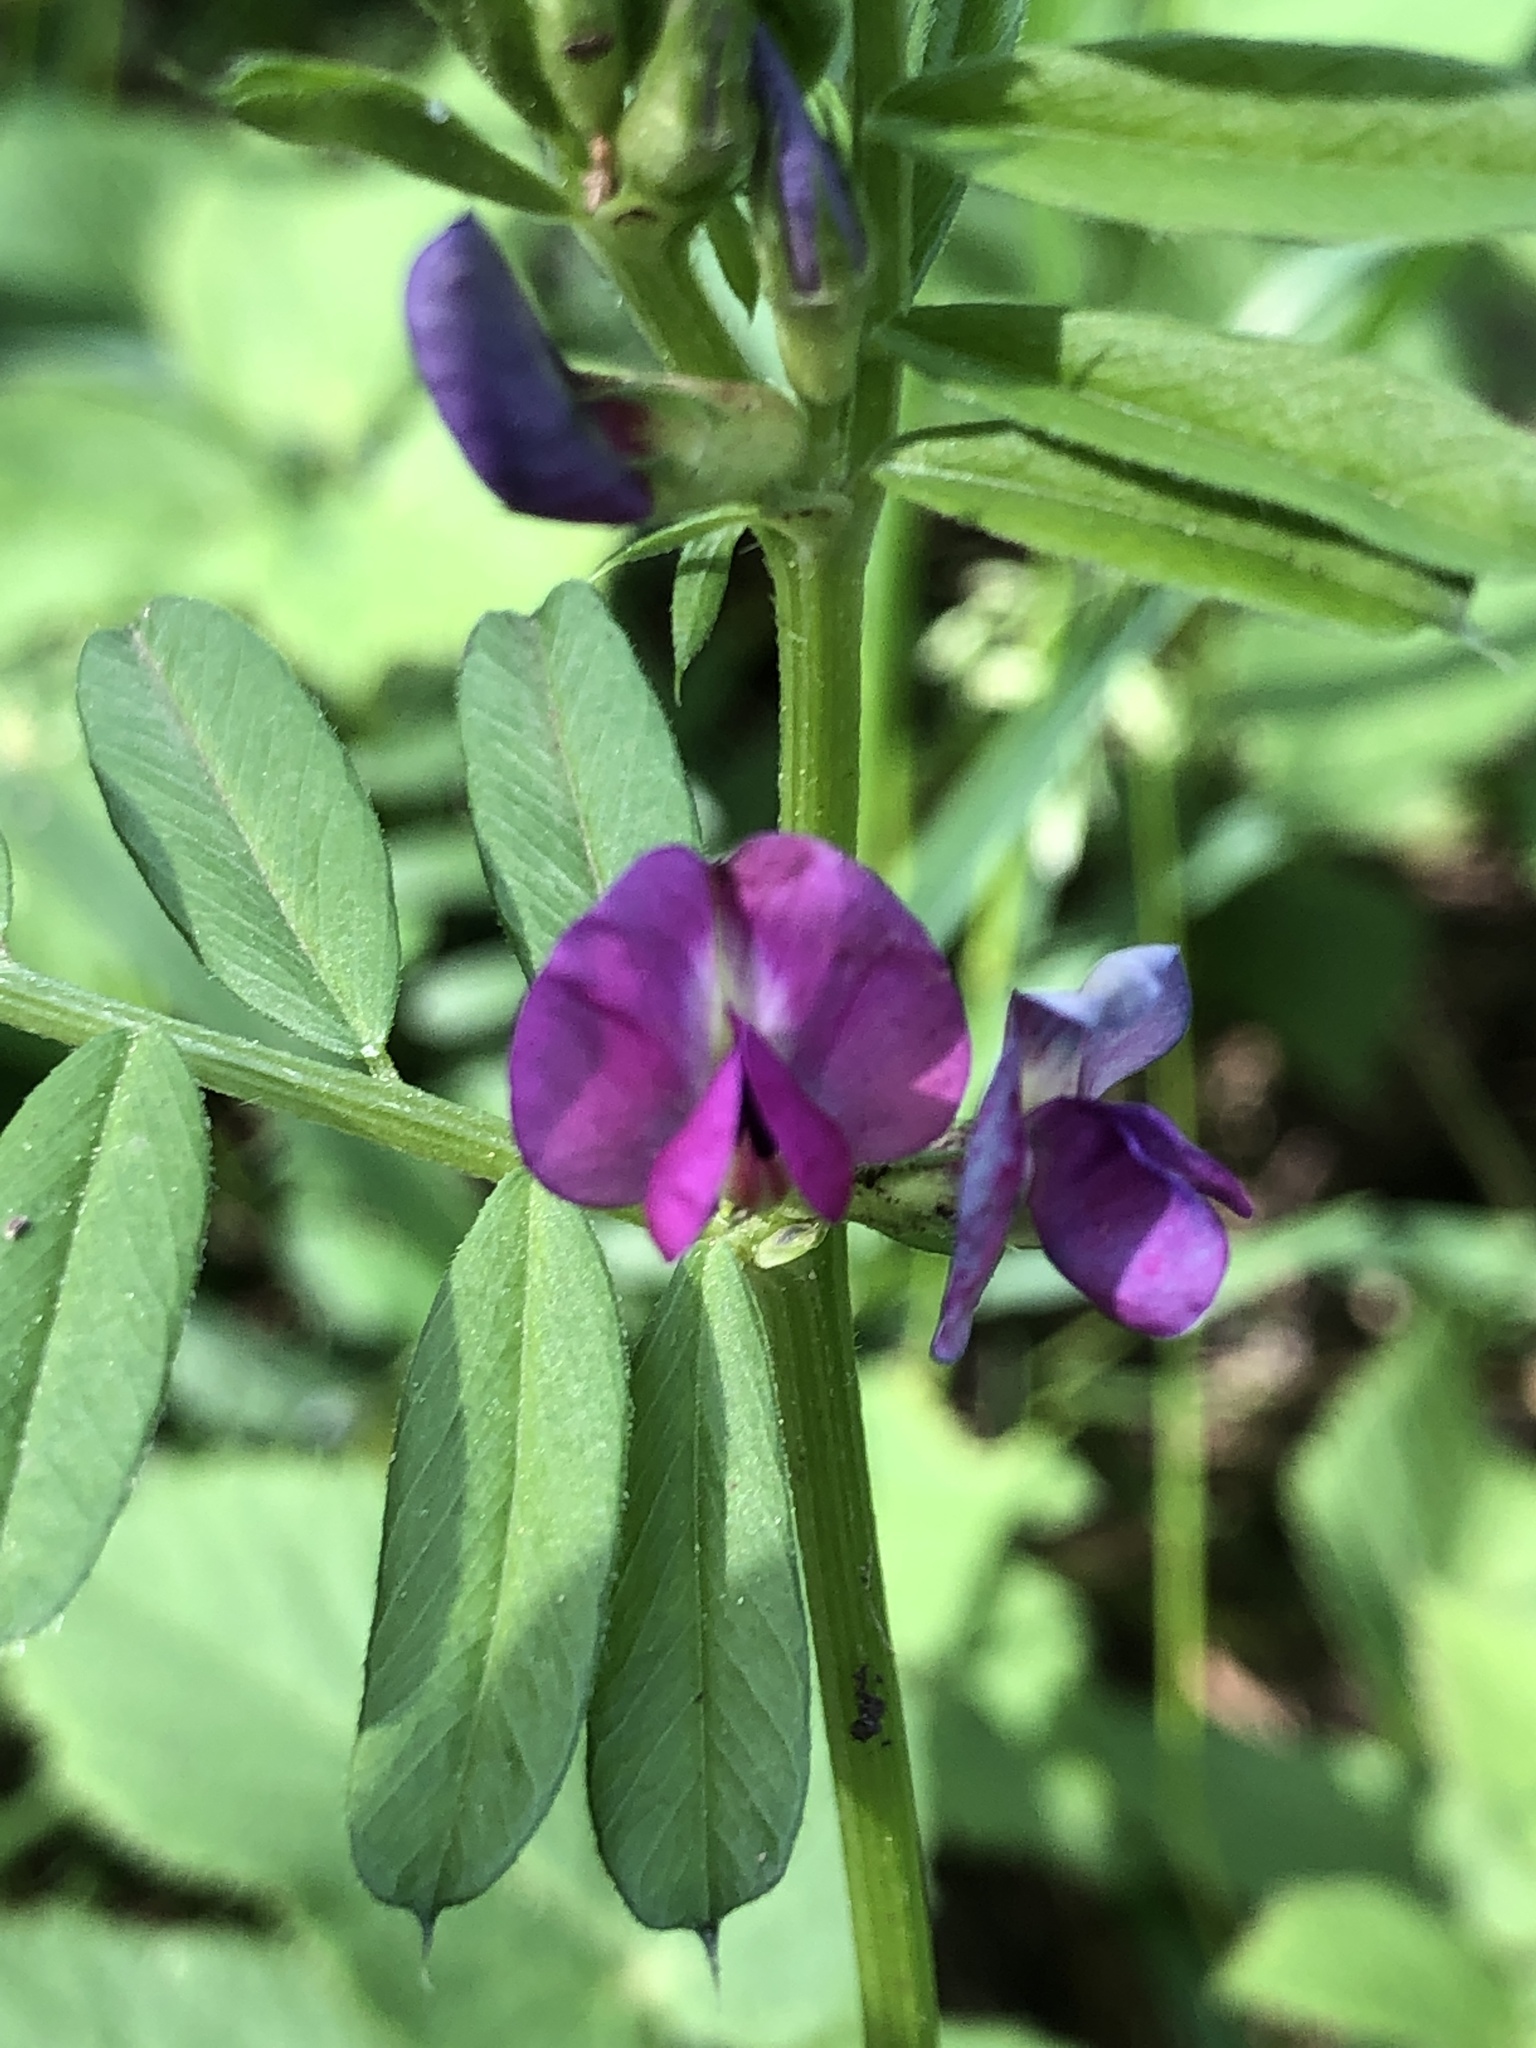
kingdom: Plantae
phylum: Tracheophyta
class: Magnoliopsida
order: Fabales
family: Fabaceae
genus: Vicia
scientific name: Vicia sativa
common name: Garden vetch
